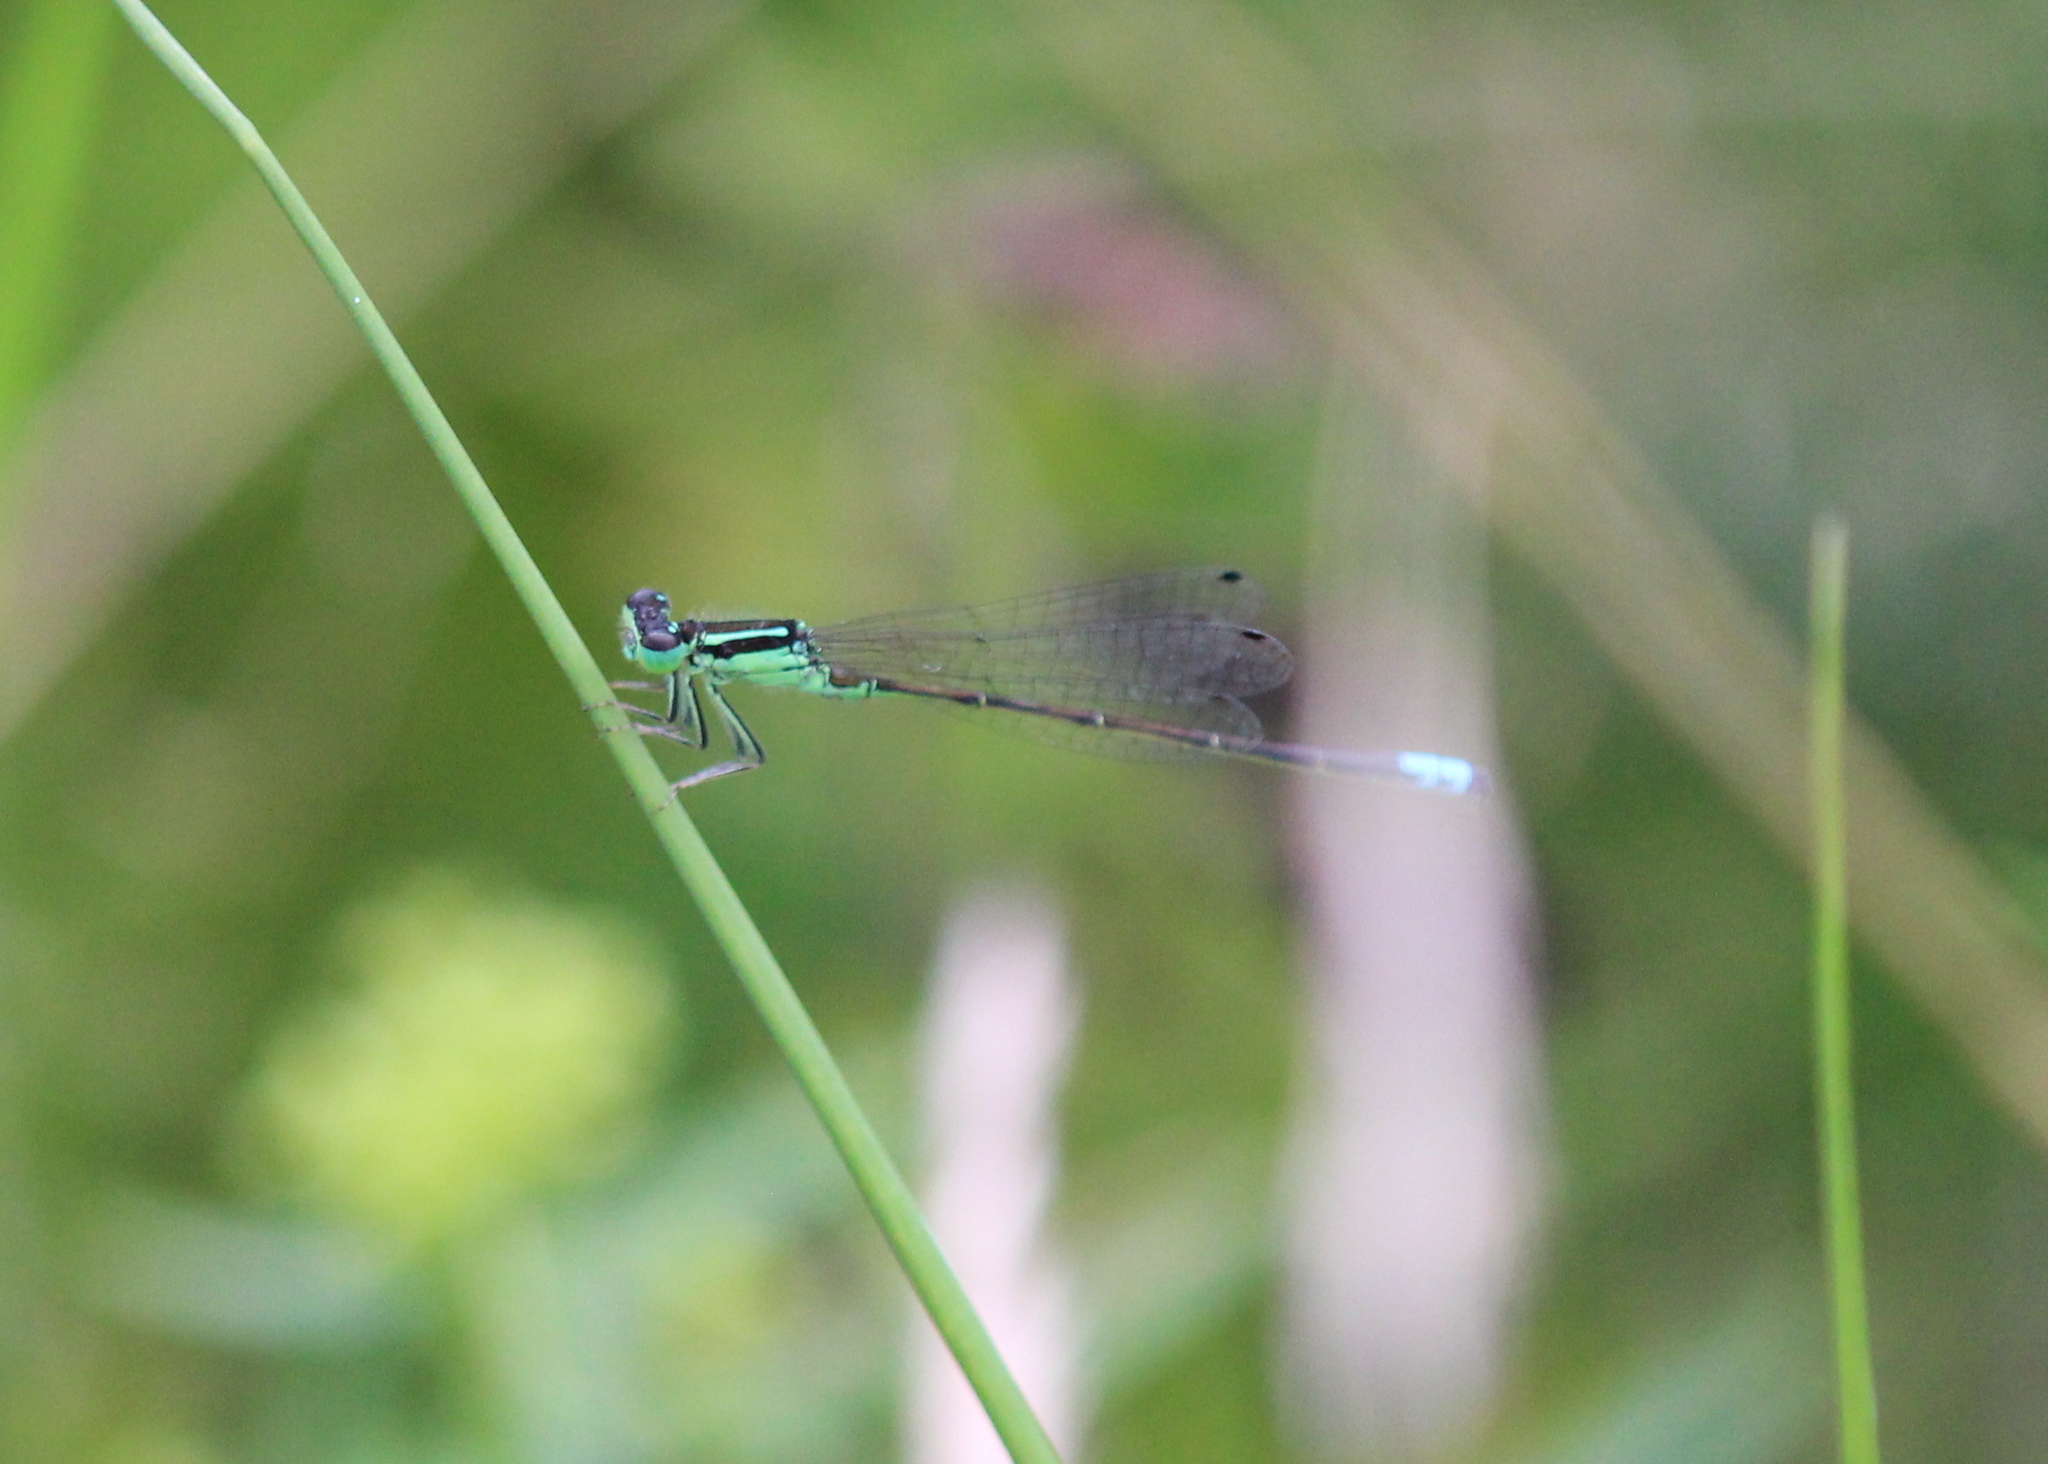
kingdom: Animalia
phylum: Arthropoda
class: Insecta
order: Odonata
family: Coenagrionidae
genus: Ischnura
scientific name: Ischnura verticalis
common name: Eastern forktail
